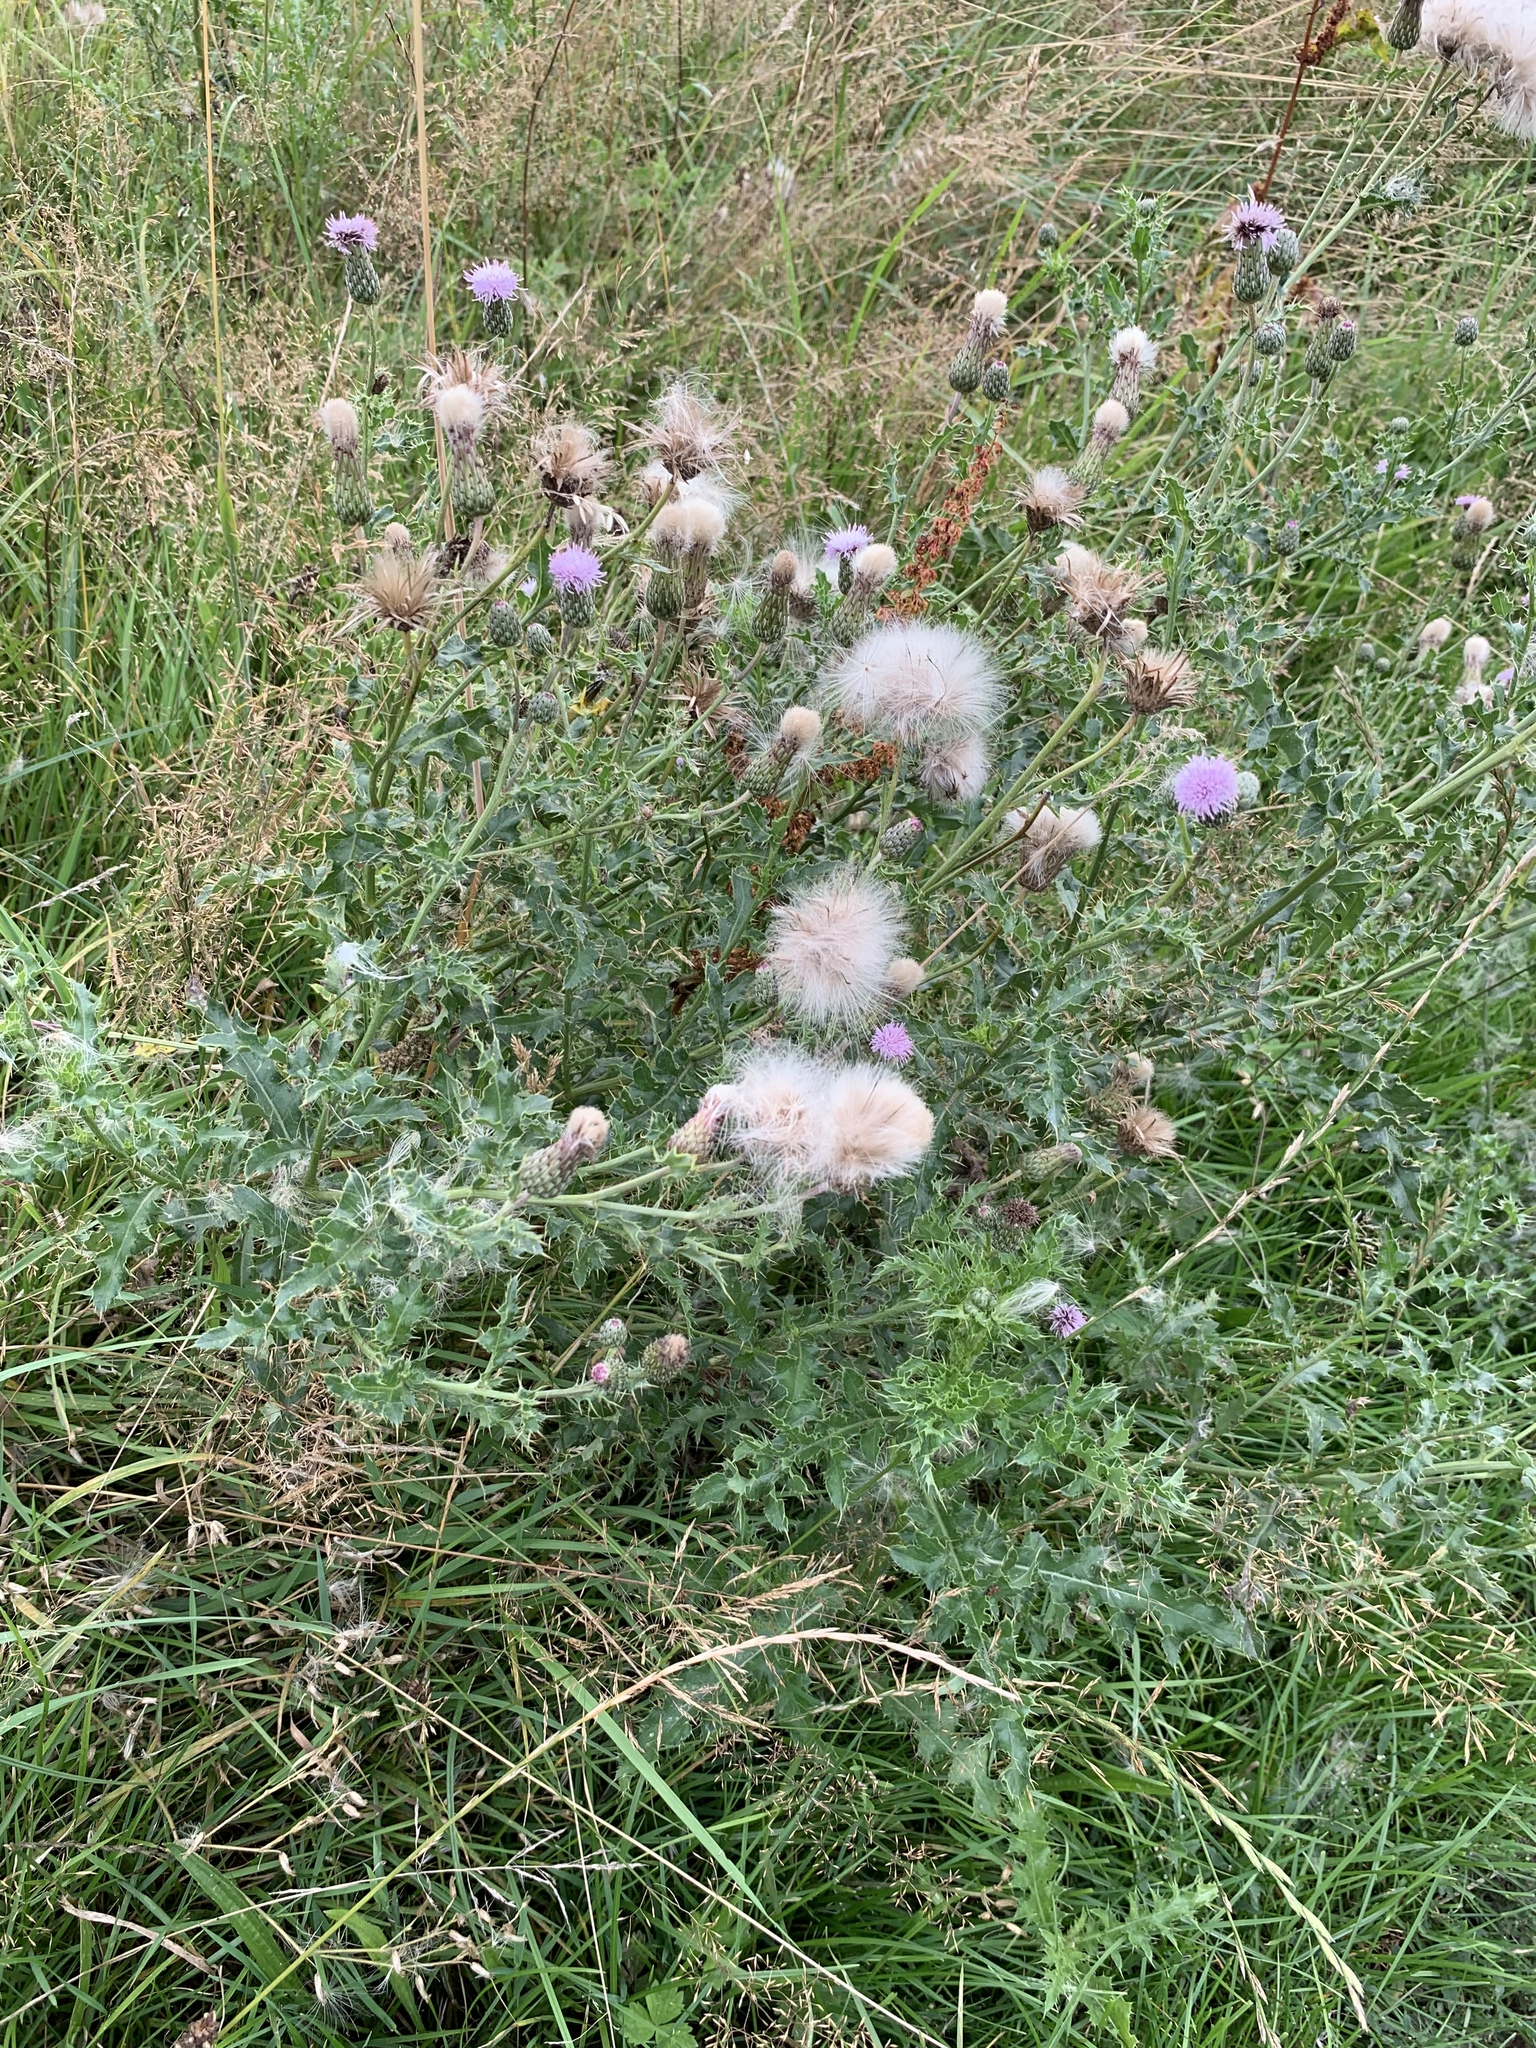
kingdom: Plantae
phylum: Tracheophyta
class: Magnoliopsida
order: Asterales
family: Asteraceae
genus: Cirsium
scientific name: Cirsium arvense
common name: Creeping thistle
